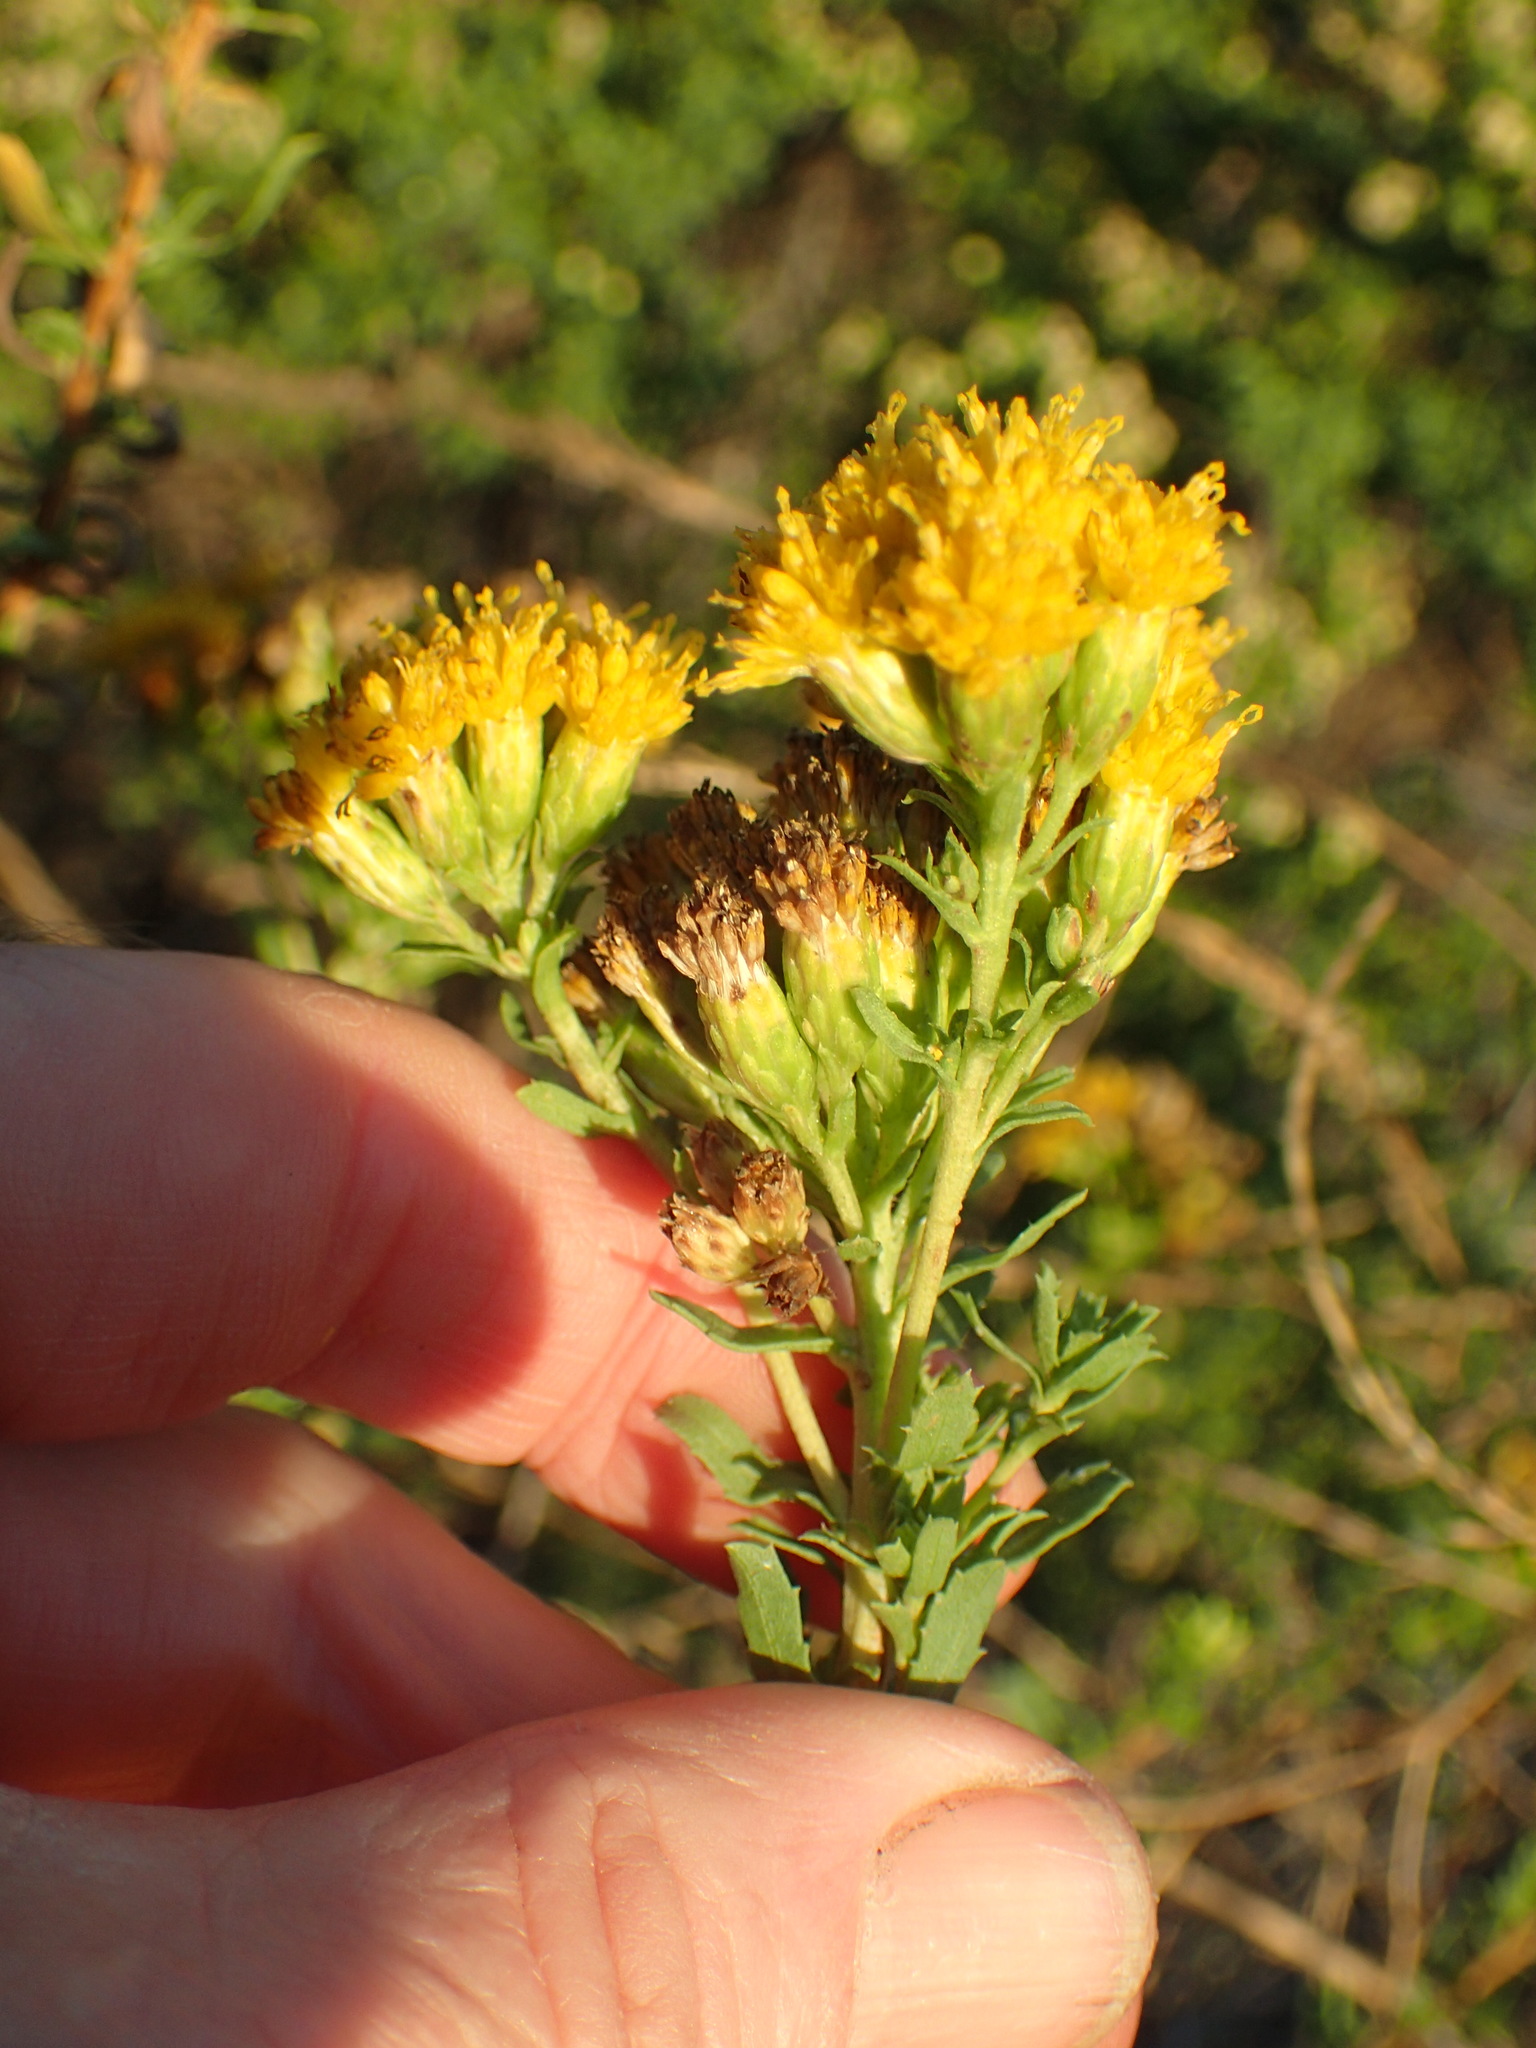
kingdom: Plantae
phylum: Tracheophyta
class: Magnoliopsida
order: Asterales
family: Asteraceae
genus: Isocoma
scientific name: Isocoma menziesii
